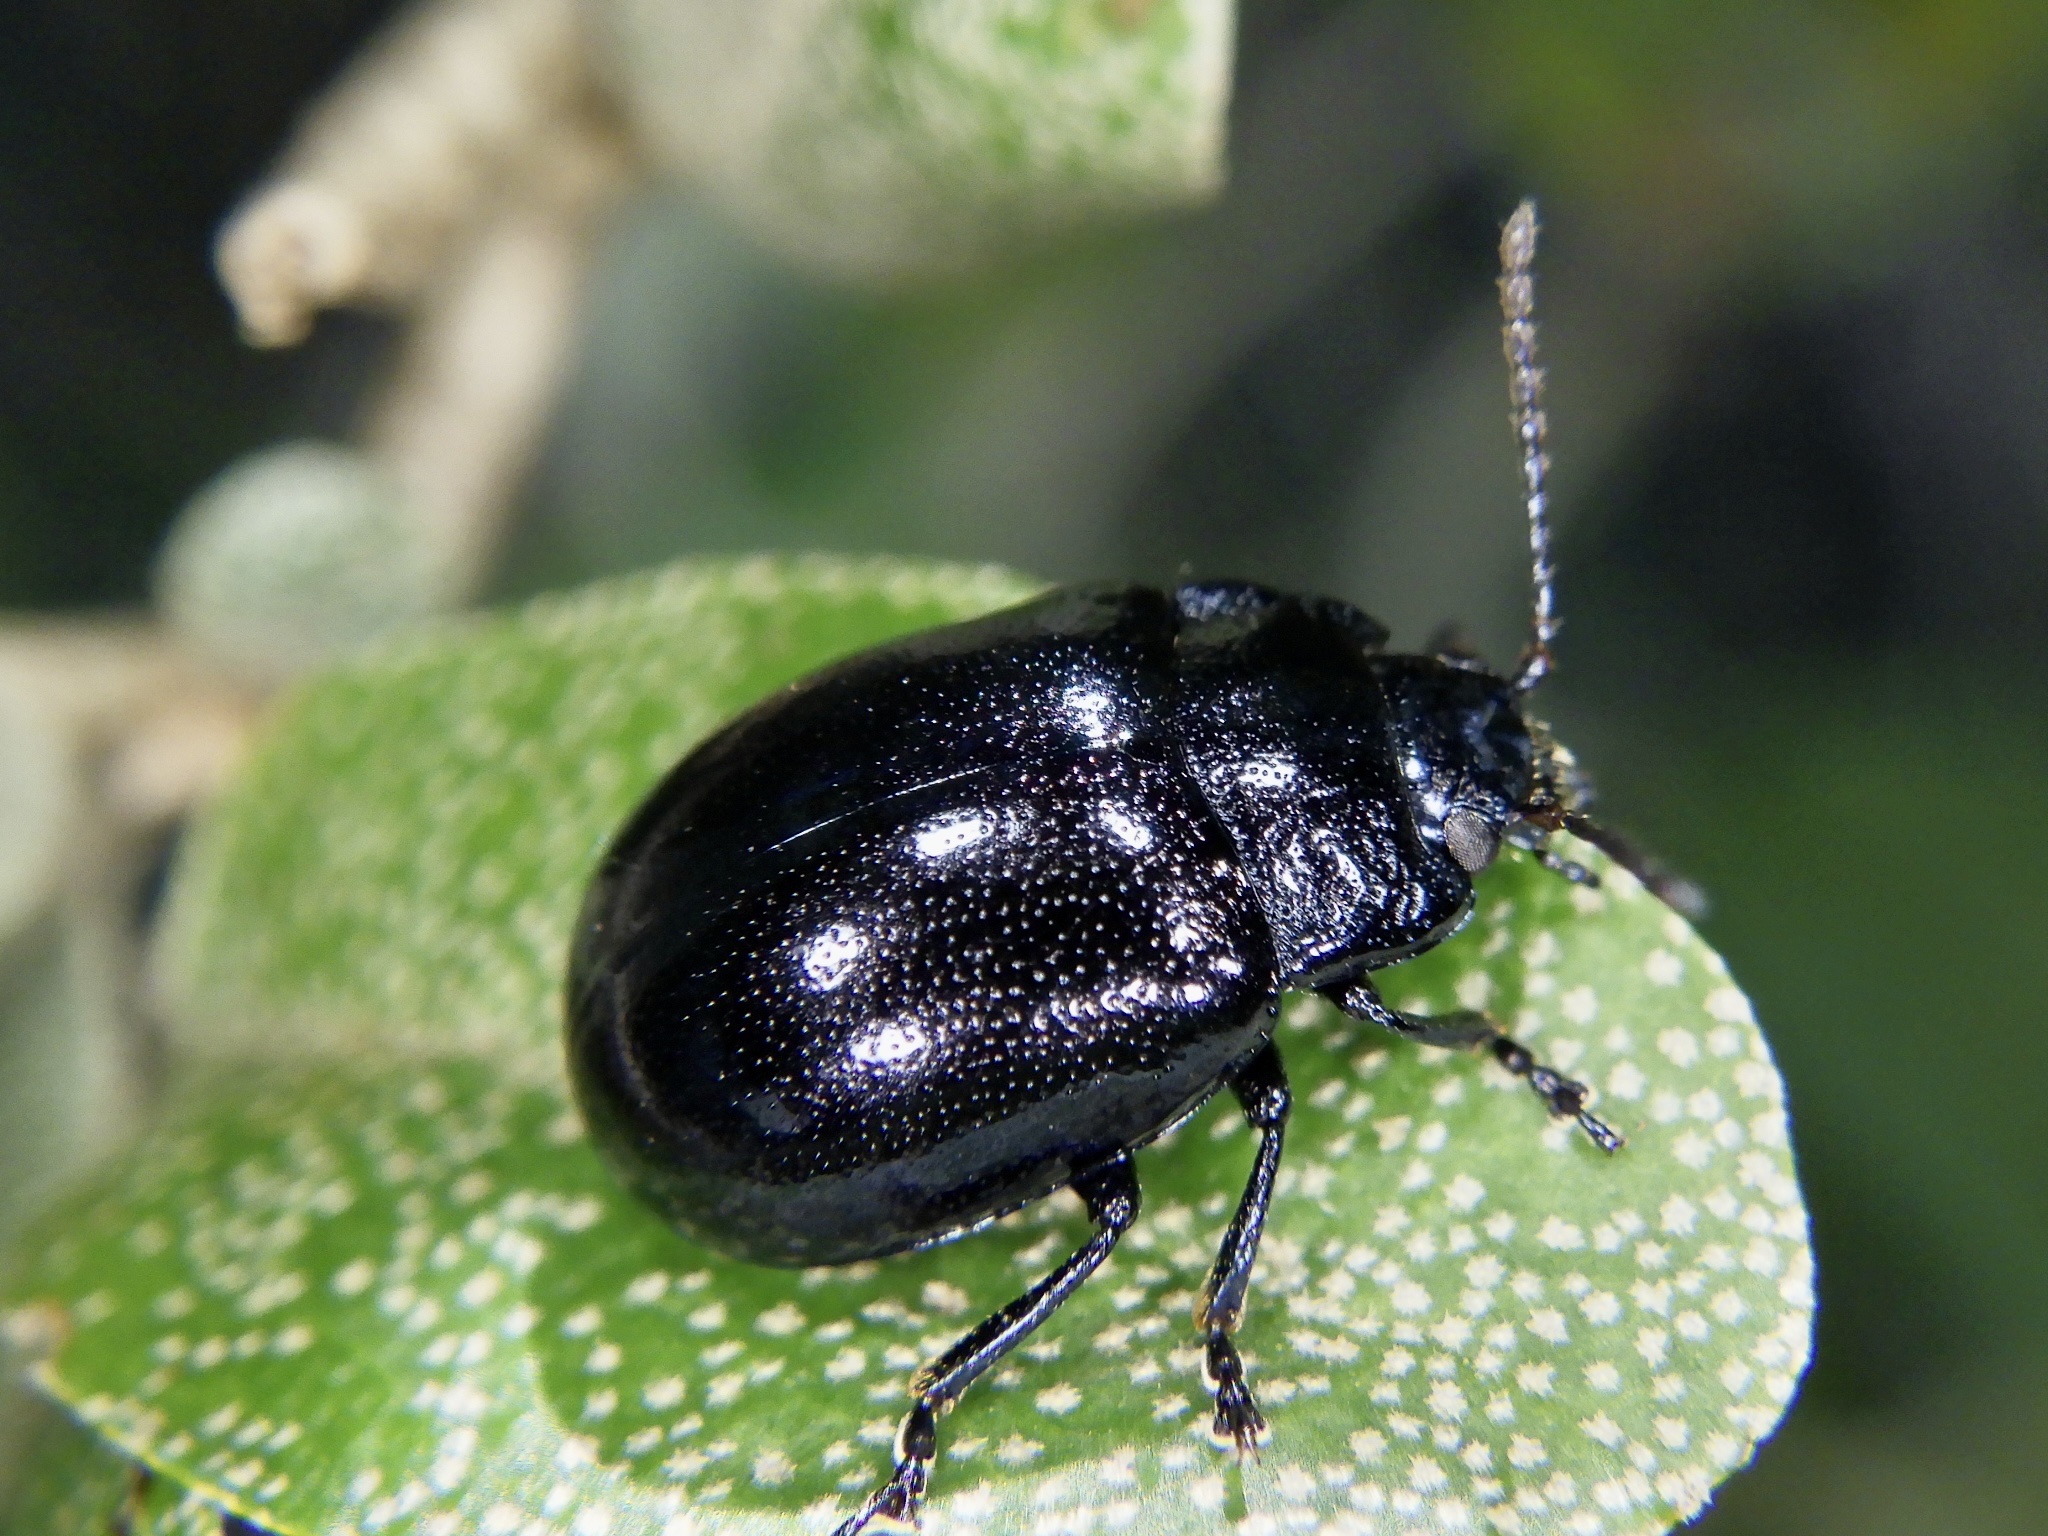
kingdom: Animalia
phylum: Arthropoda
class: Insecta
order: Coleoptera
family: Chrysomelidae
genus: Chrysolina
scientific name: Chrysolina aurichalcea
